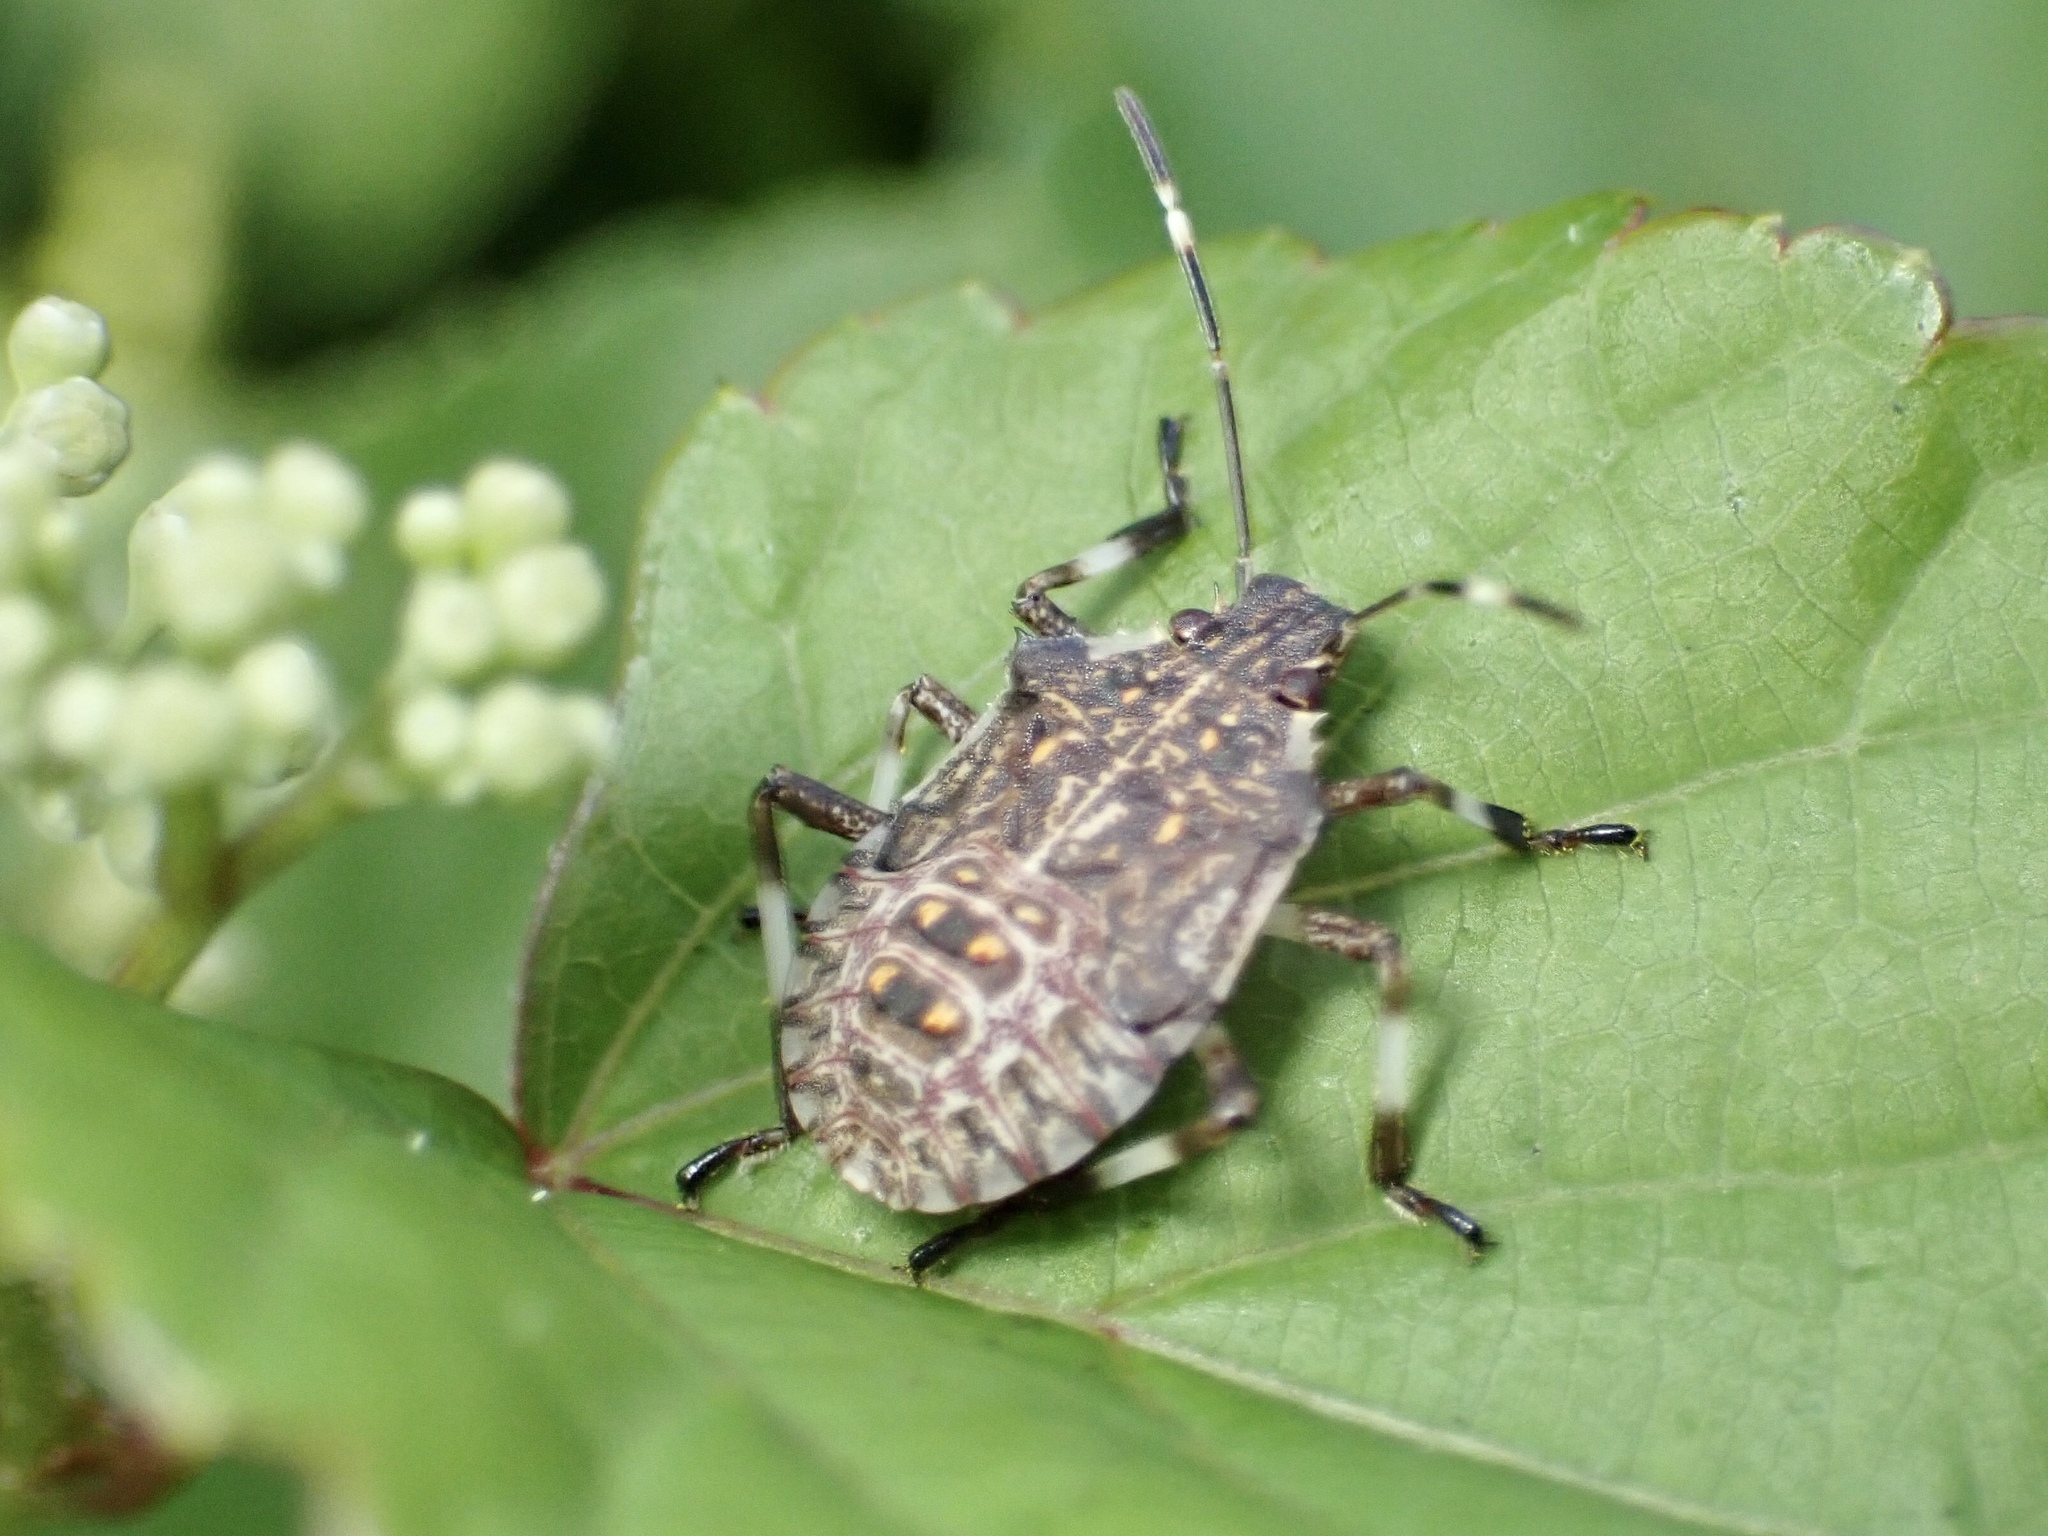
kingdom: Animalia
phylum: Arthropoda
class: Insecta
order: Hemiptera
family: Pentatomidae
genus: Halyomorpha
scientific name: Halyomorpha halys
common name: Brown marmorated stink bug
